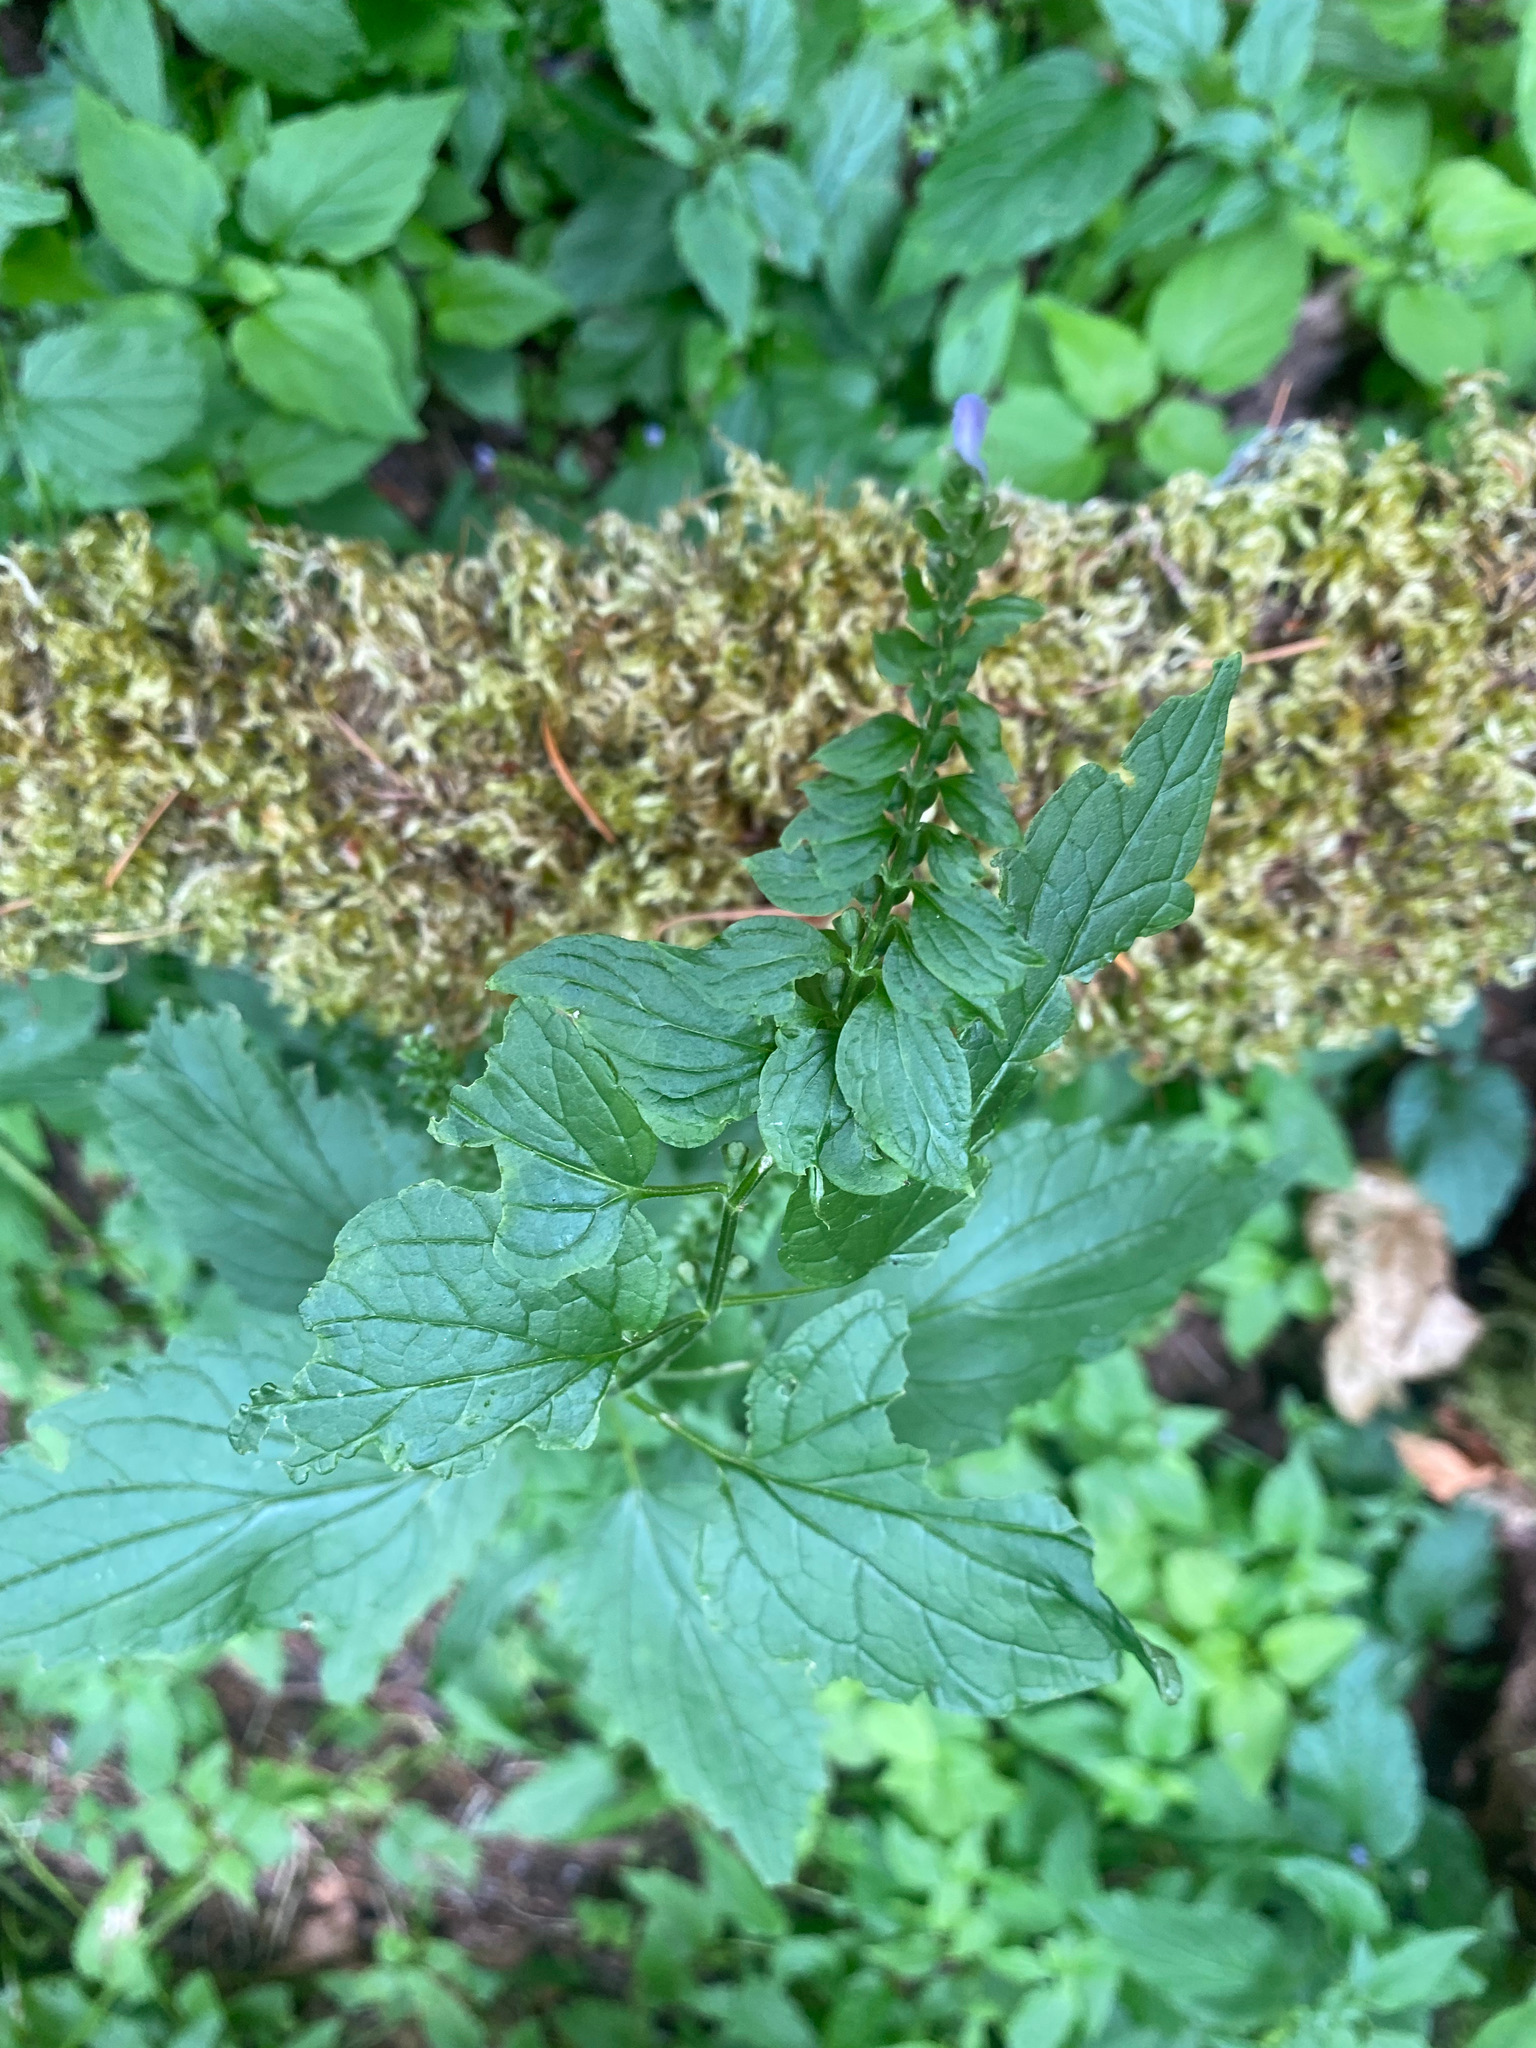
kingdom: Plantae
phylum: Tracheophyta
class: Magnoliopsida
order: Lamiales
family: Lamiaceae
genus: Scutellaria
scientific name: Scutellaria lateriflora
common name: Blue skullcap
